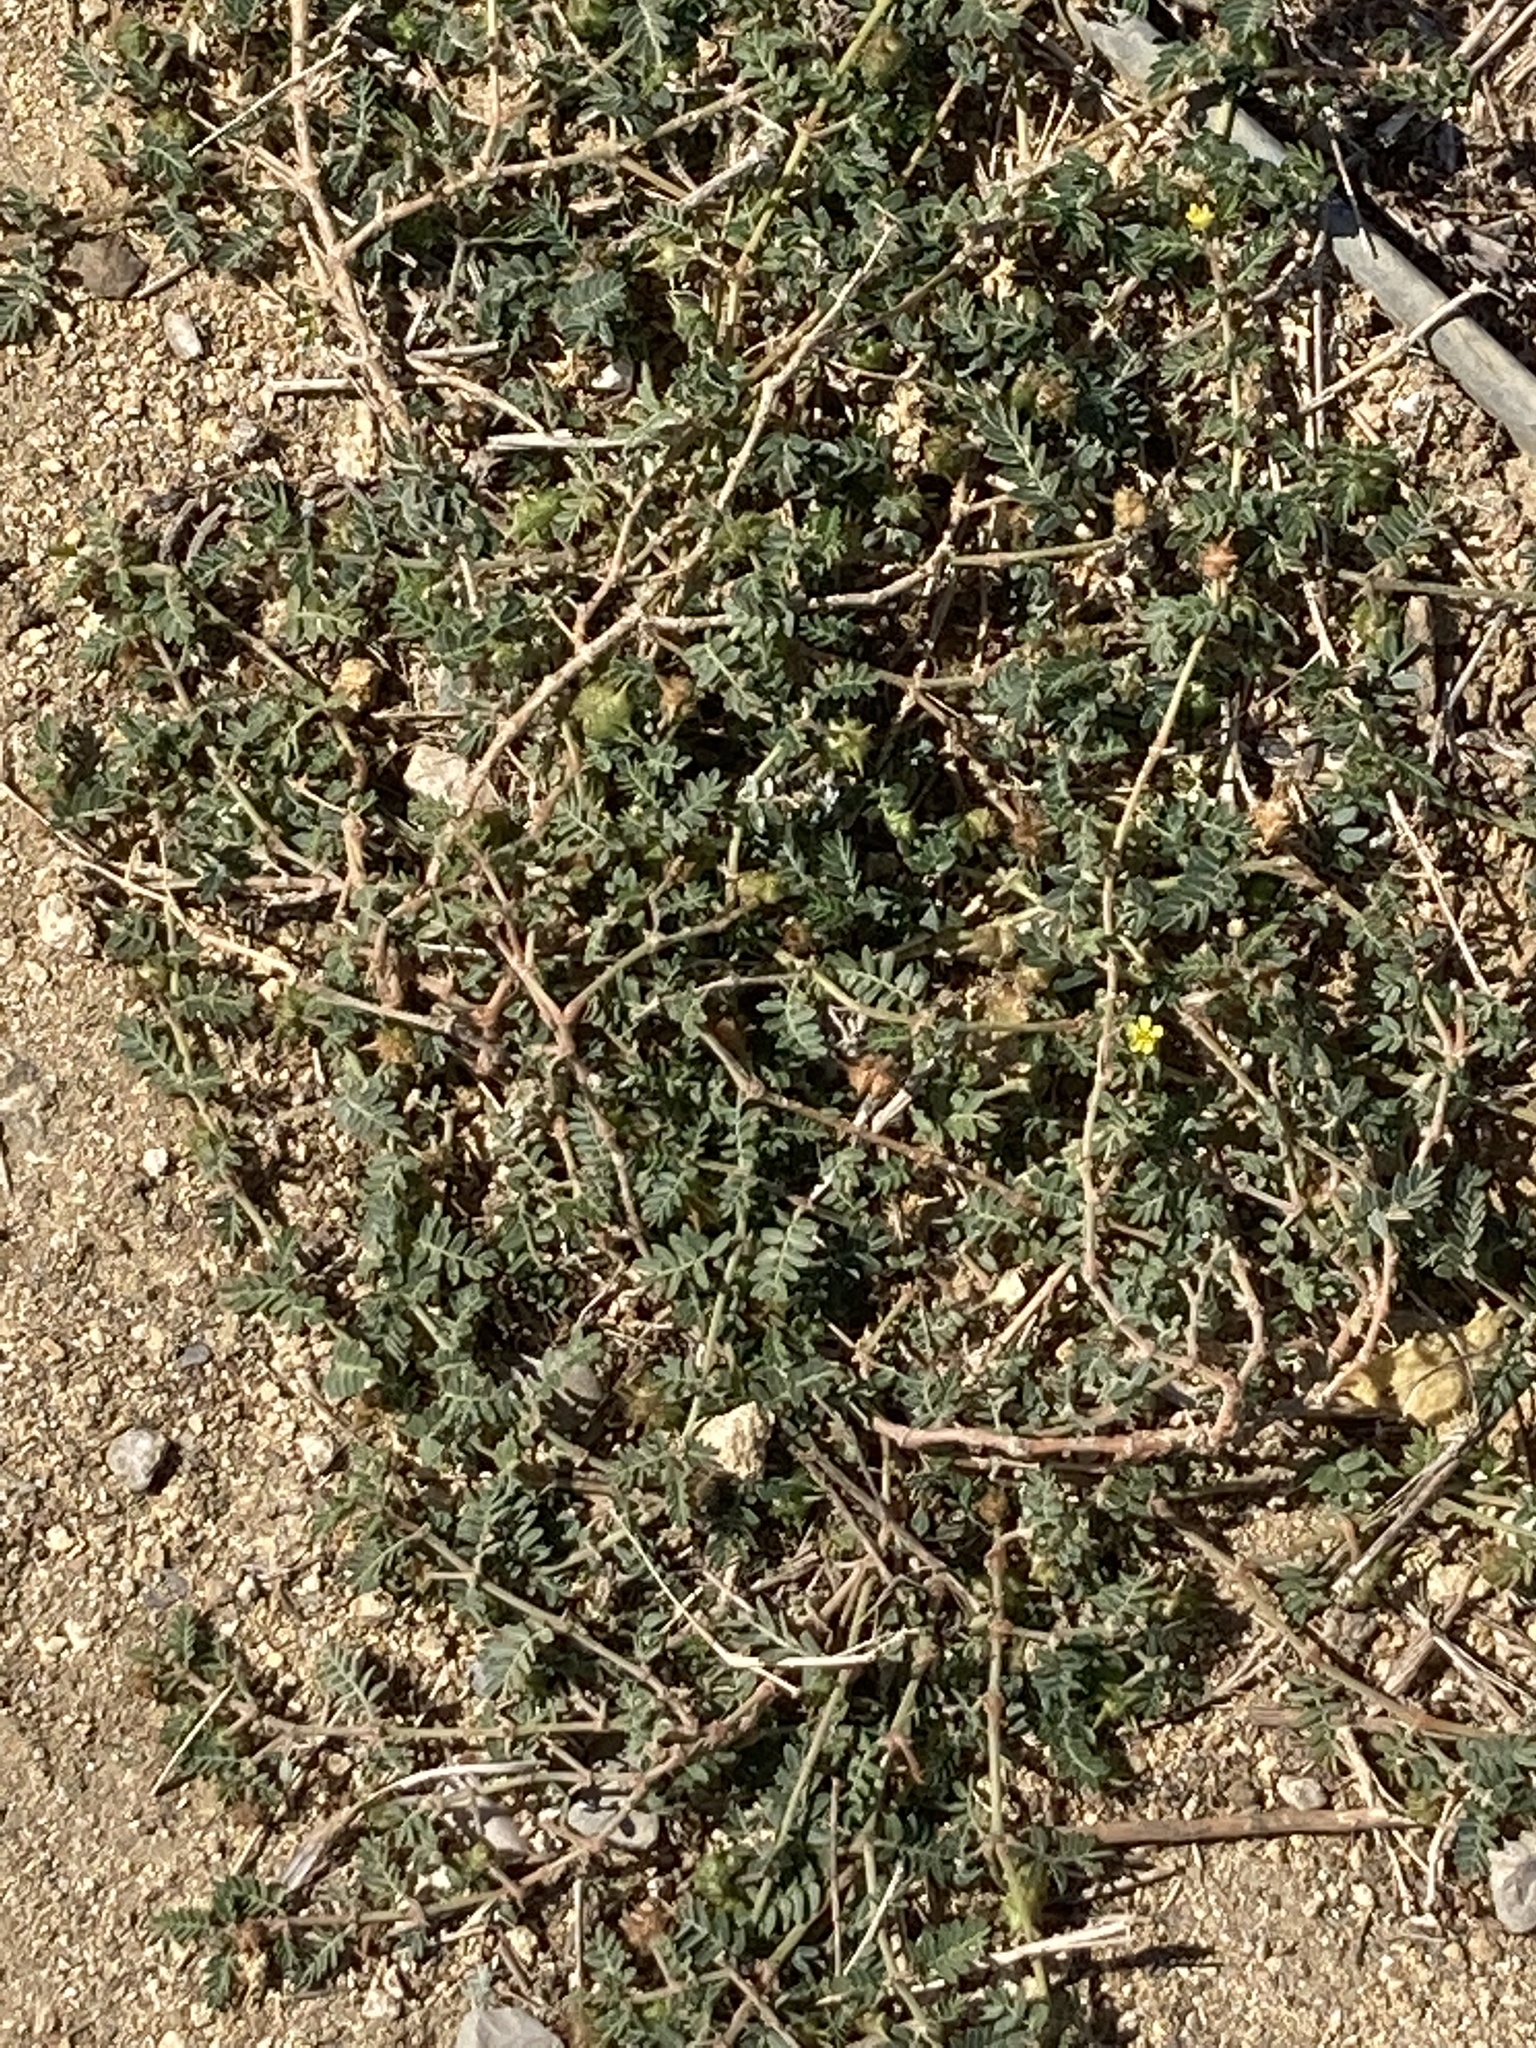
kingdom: Plantae
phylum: Tracheophyta
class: Magnoliopsida
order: Zygophyllales
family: Zygophyllaceae
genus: Tribulus
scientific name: Tribulus terrestris
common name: Puncturevine
